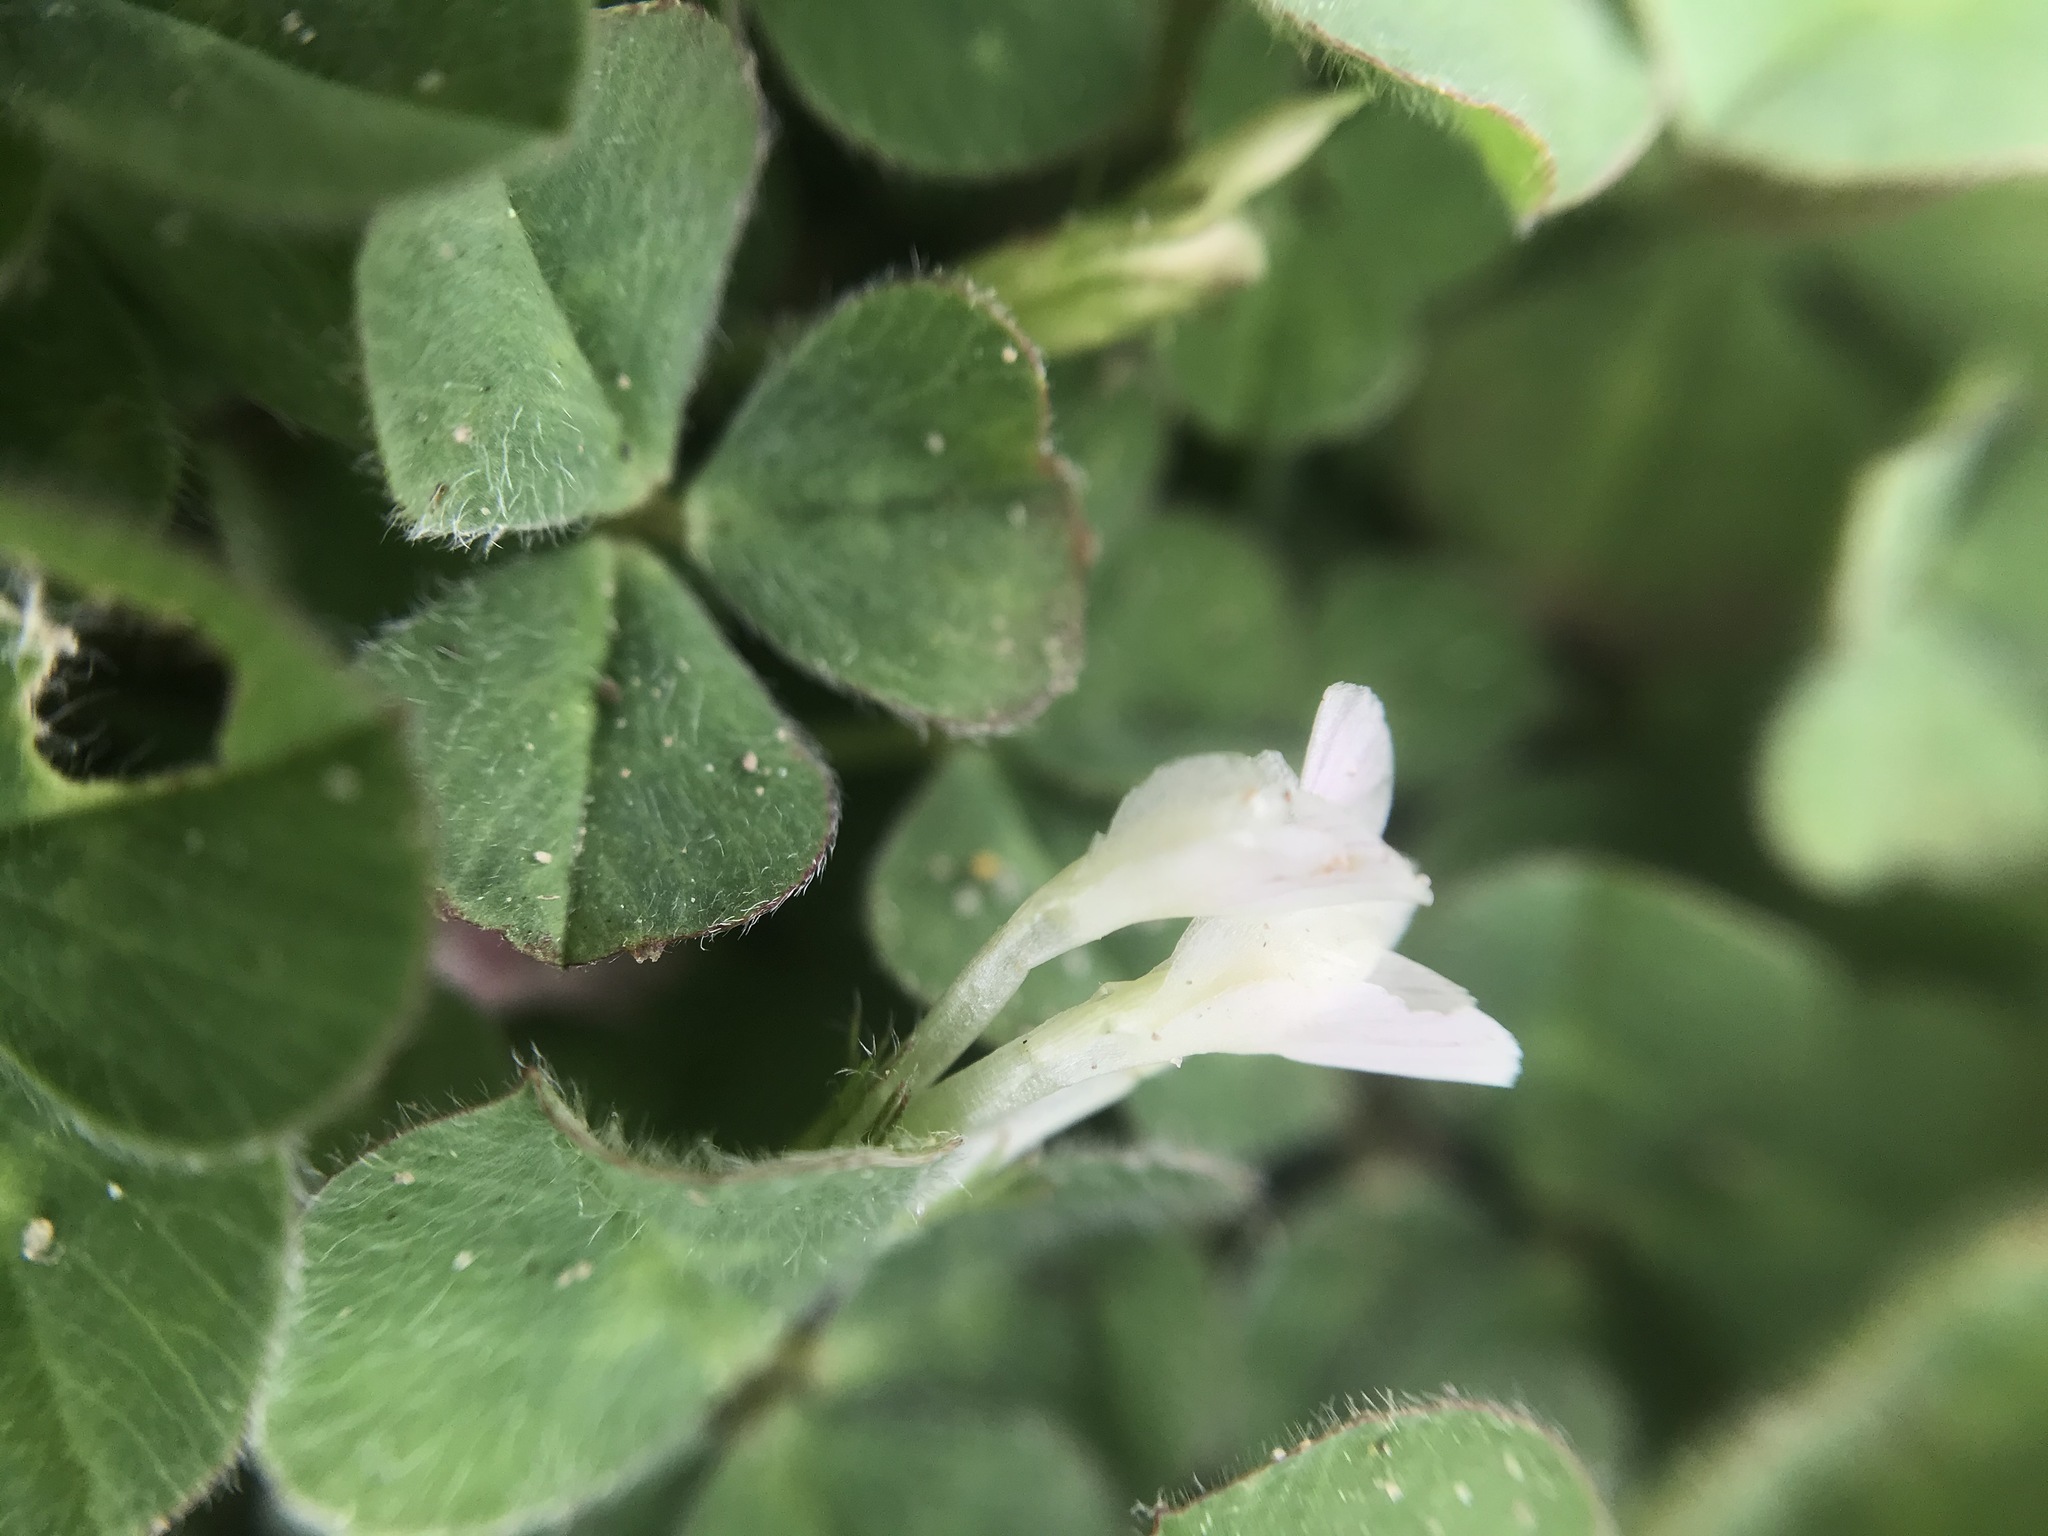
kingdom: Plantae
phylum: Tracheophyta
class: Magnoliopsida
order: Fabales
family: Fabaceae
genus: Trifolium
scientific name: Trifolium subterraneum
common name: Subterranean clover
